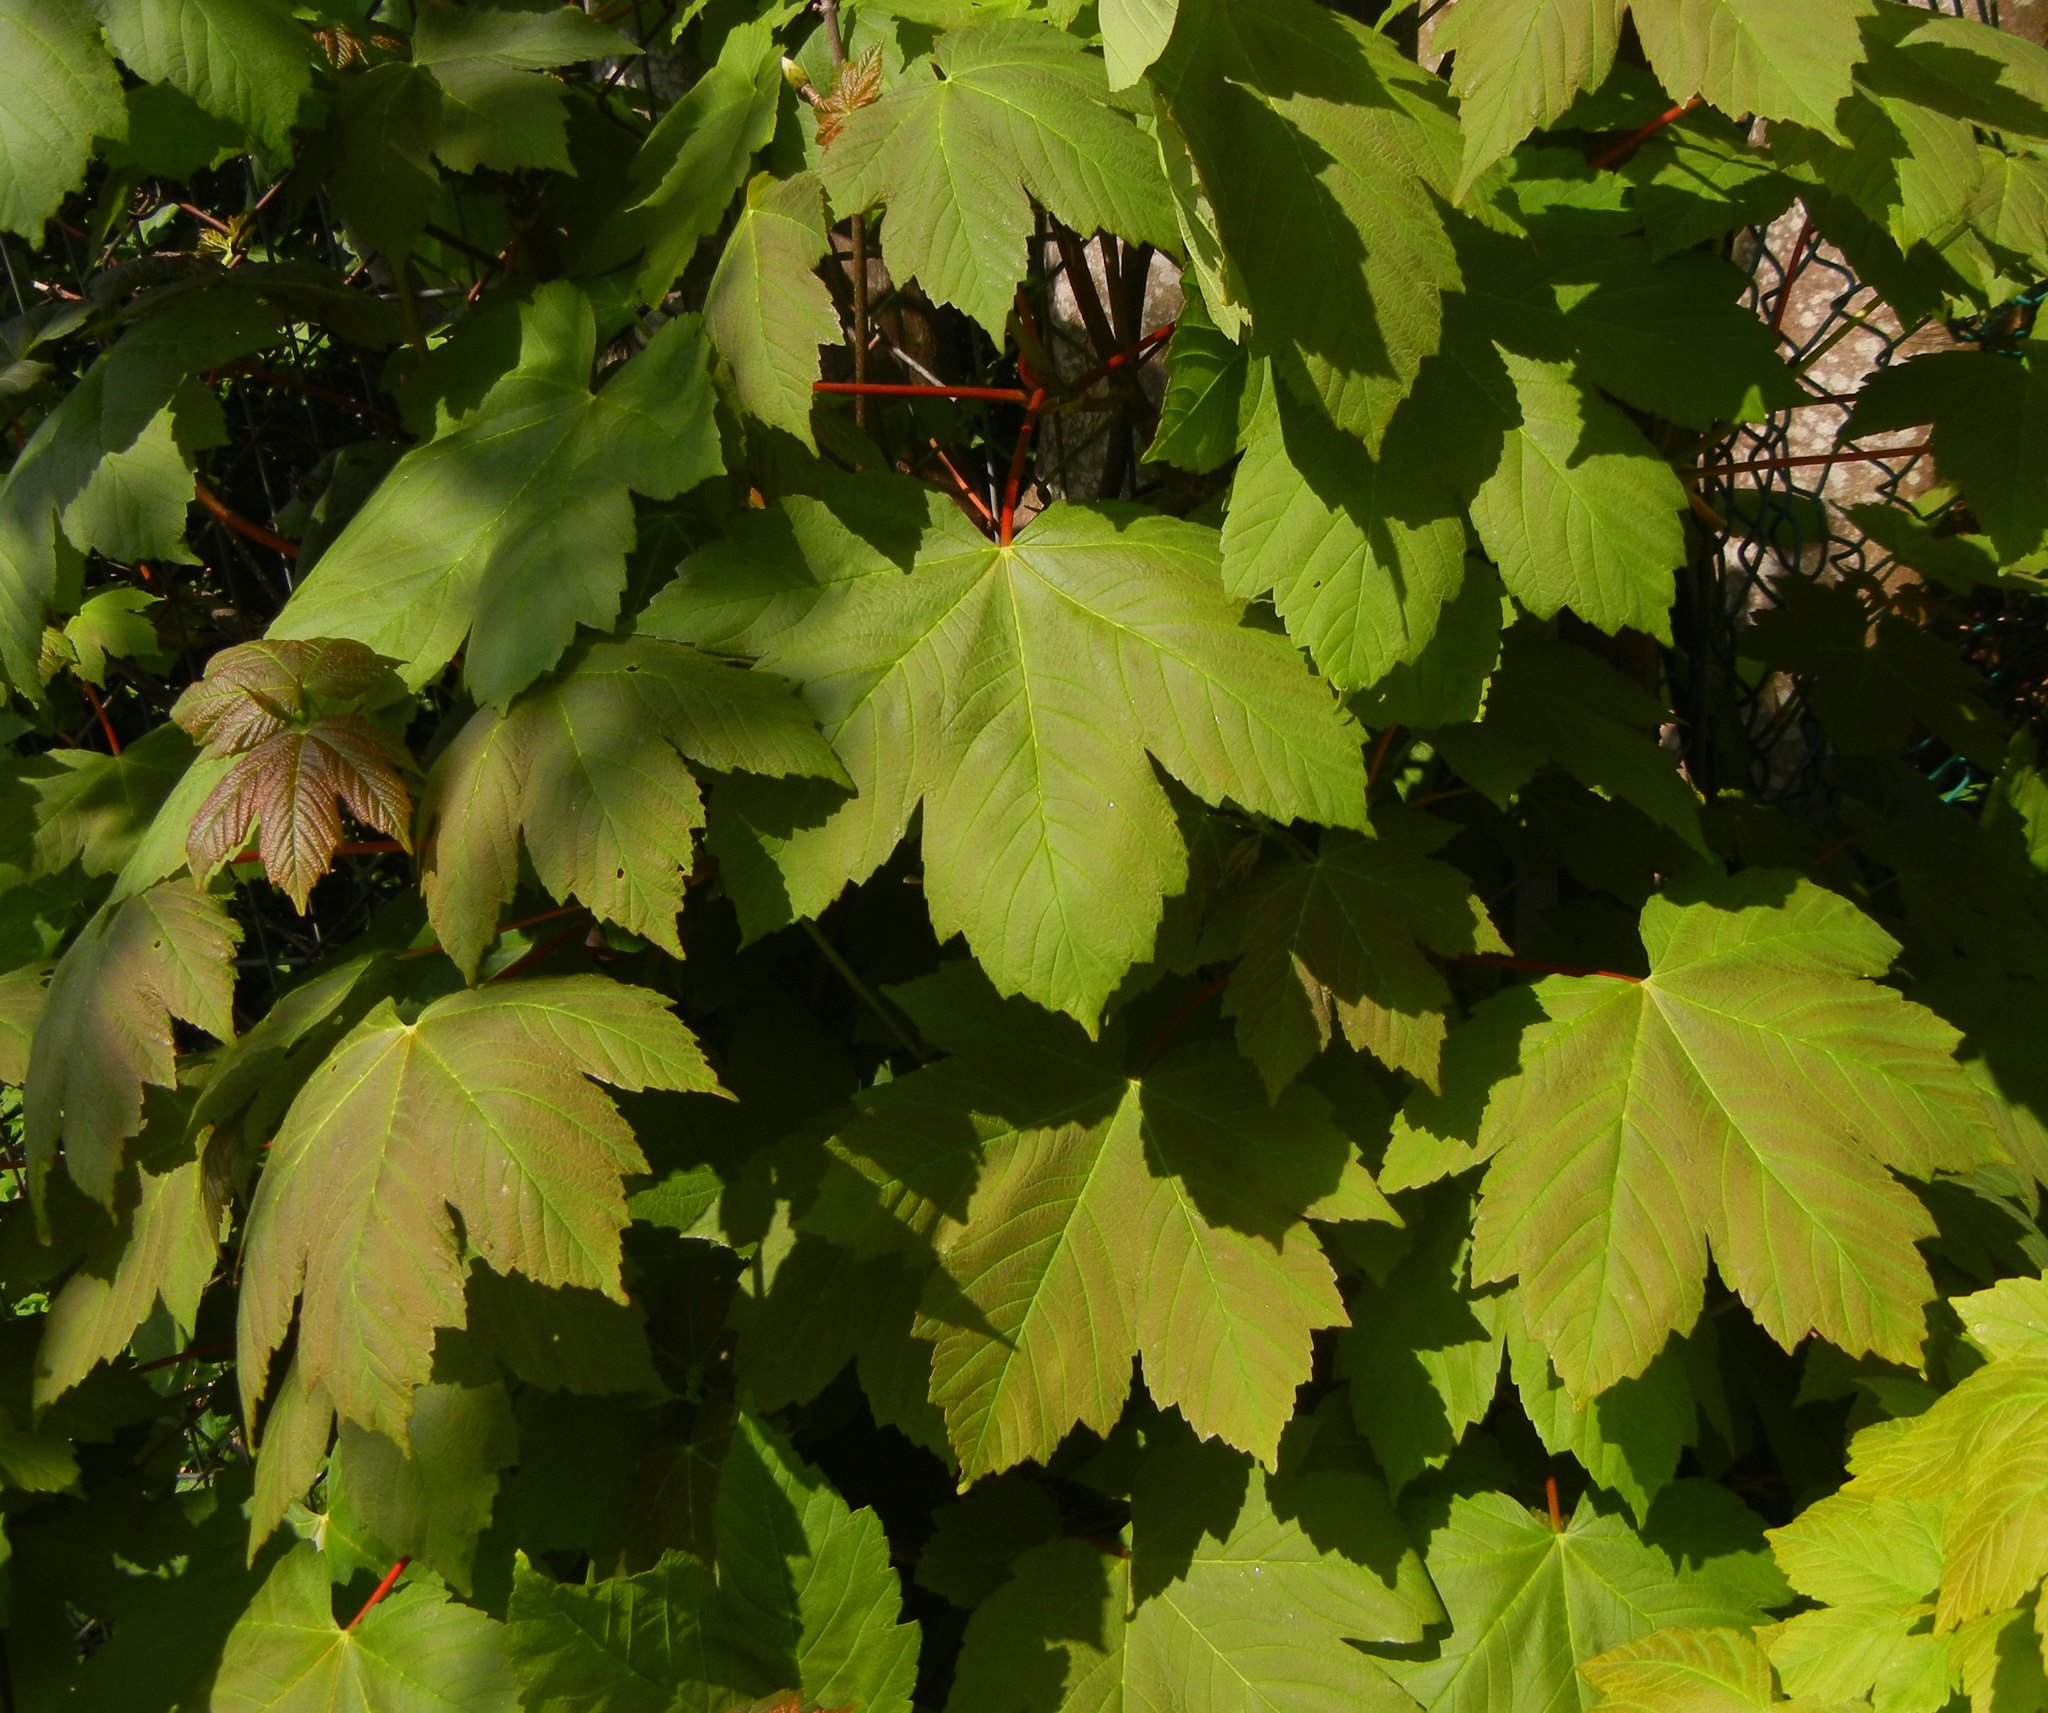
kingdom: Plantae
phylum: Tracheophyta
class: Magnoliopsida
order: Sapindales
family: Sapindaceae
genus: Acer
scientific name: Acer pseudoplatanus
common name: Sycamore
